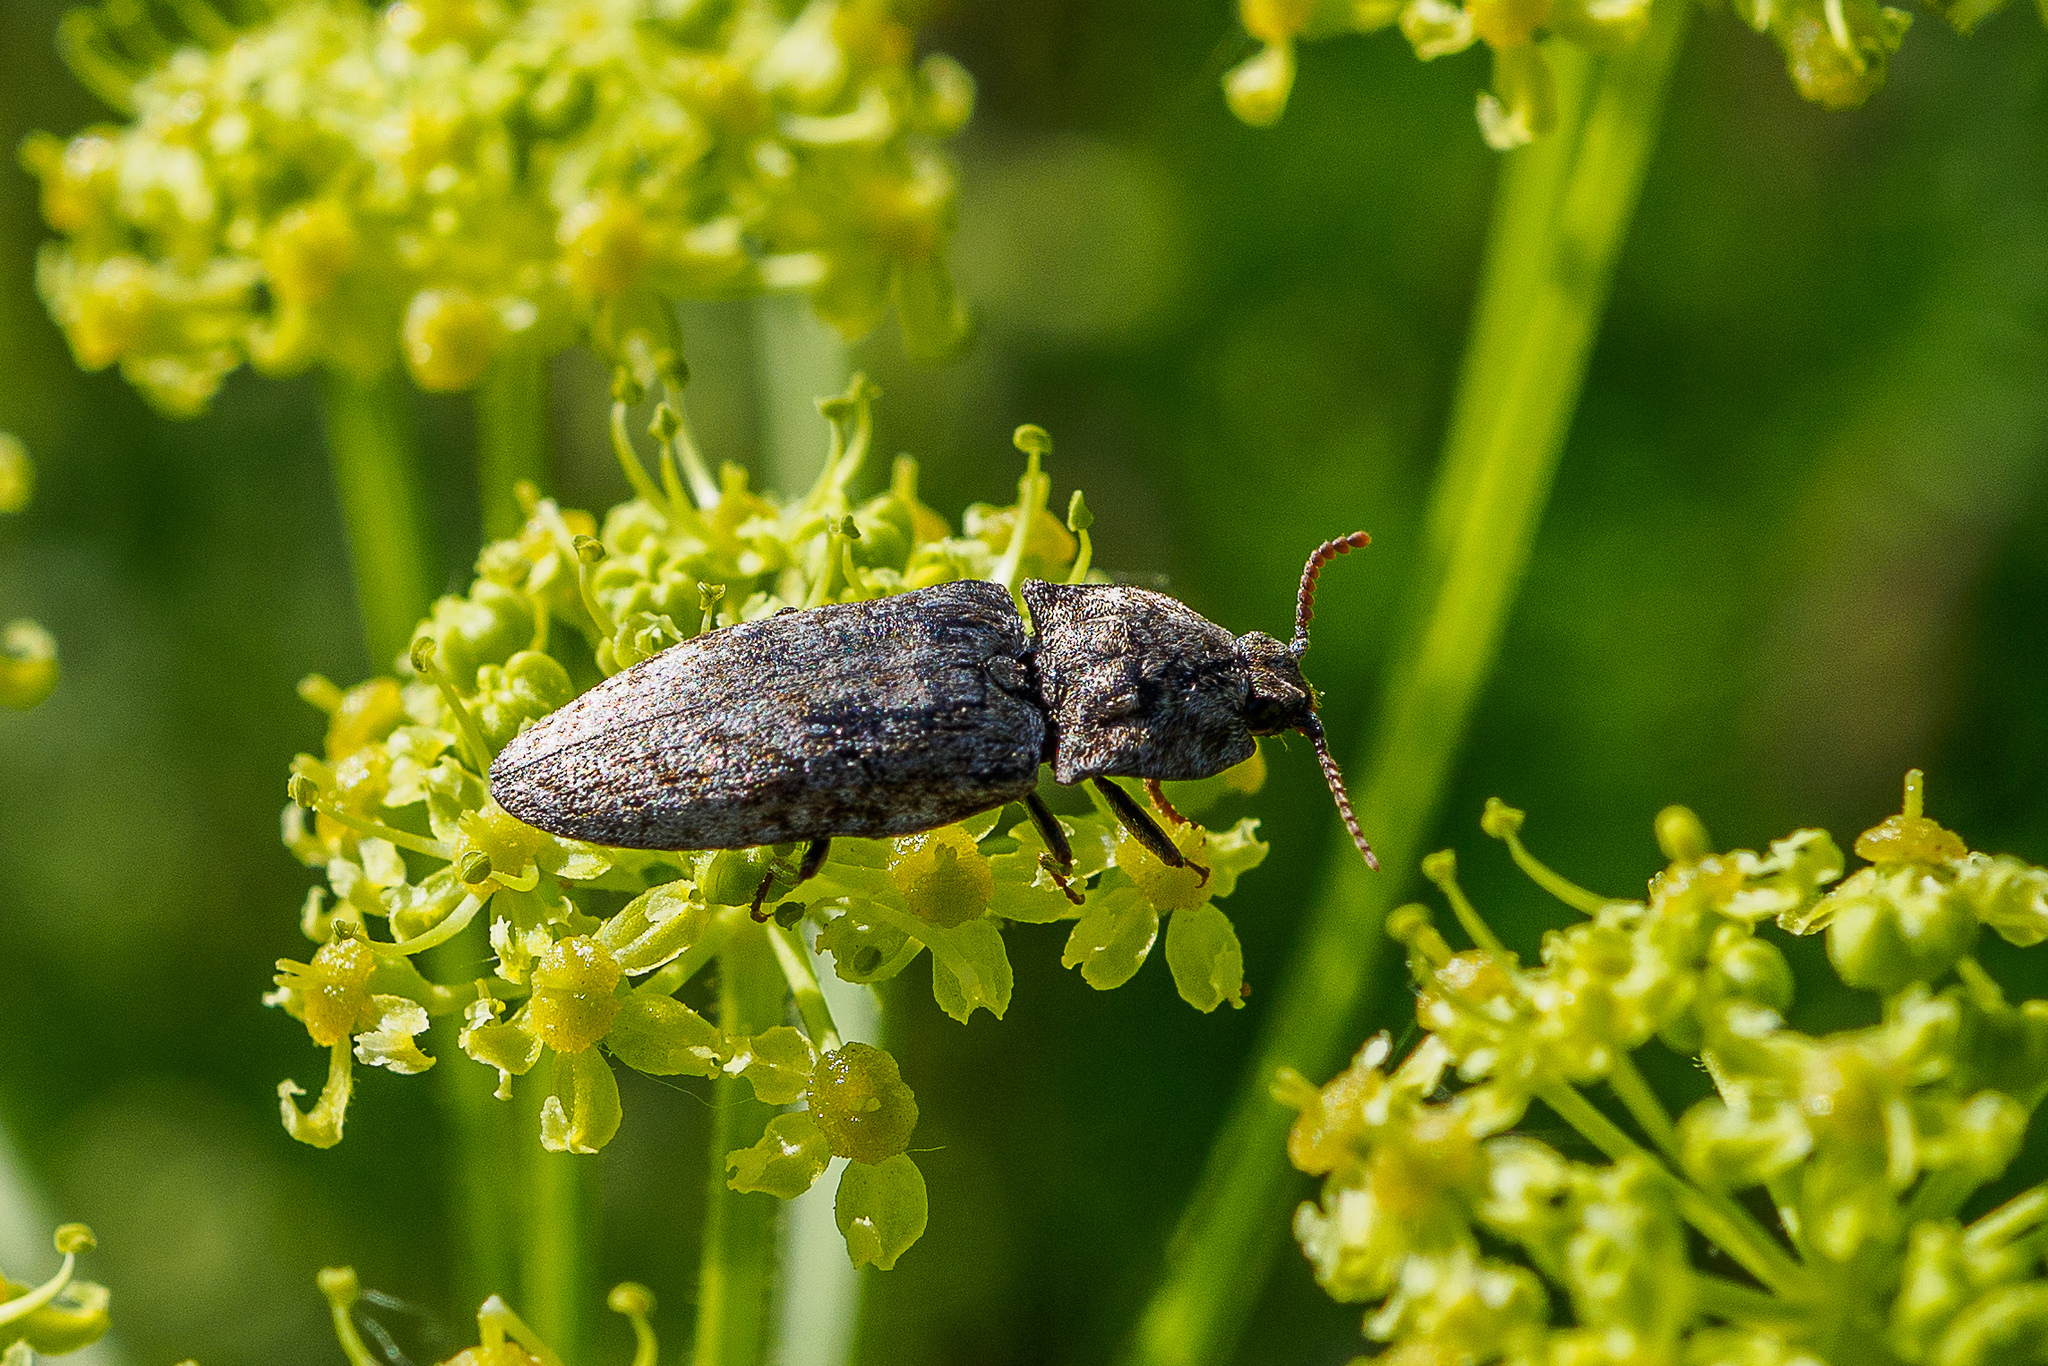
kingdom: Animalia
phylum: Arthropoda
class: Insecta
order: Coleoptera
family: Elateridae
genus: Agrypnus
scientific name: Agrypnus murinus
